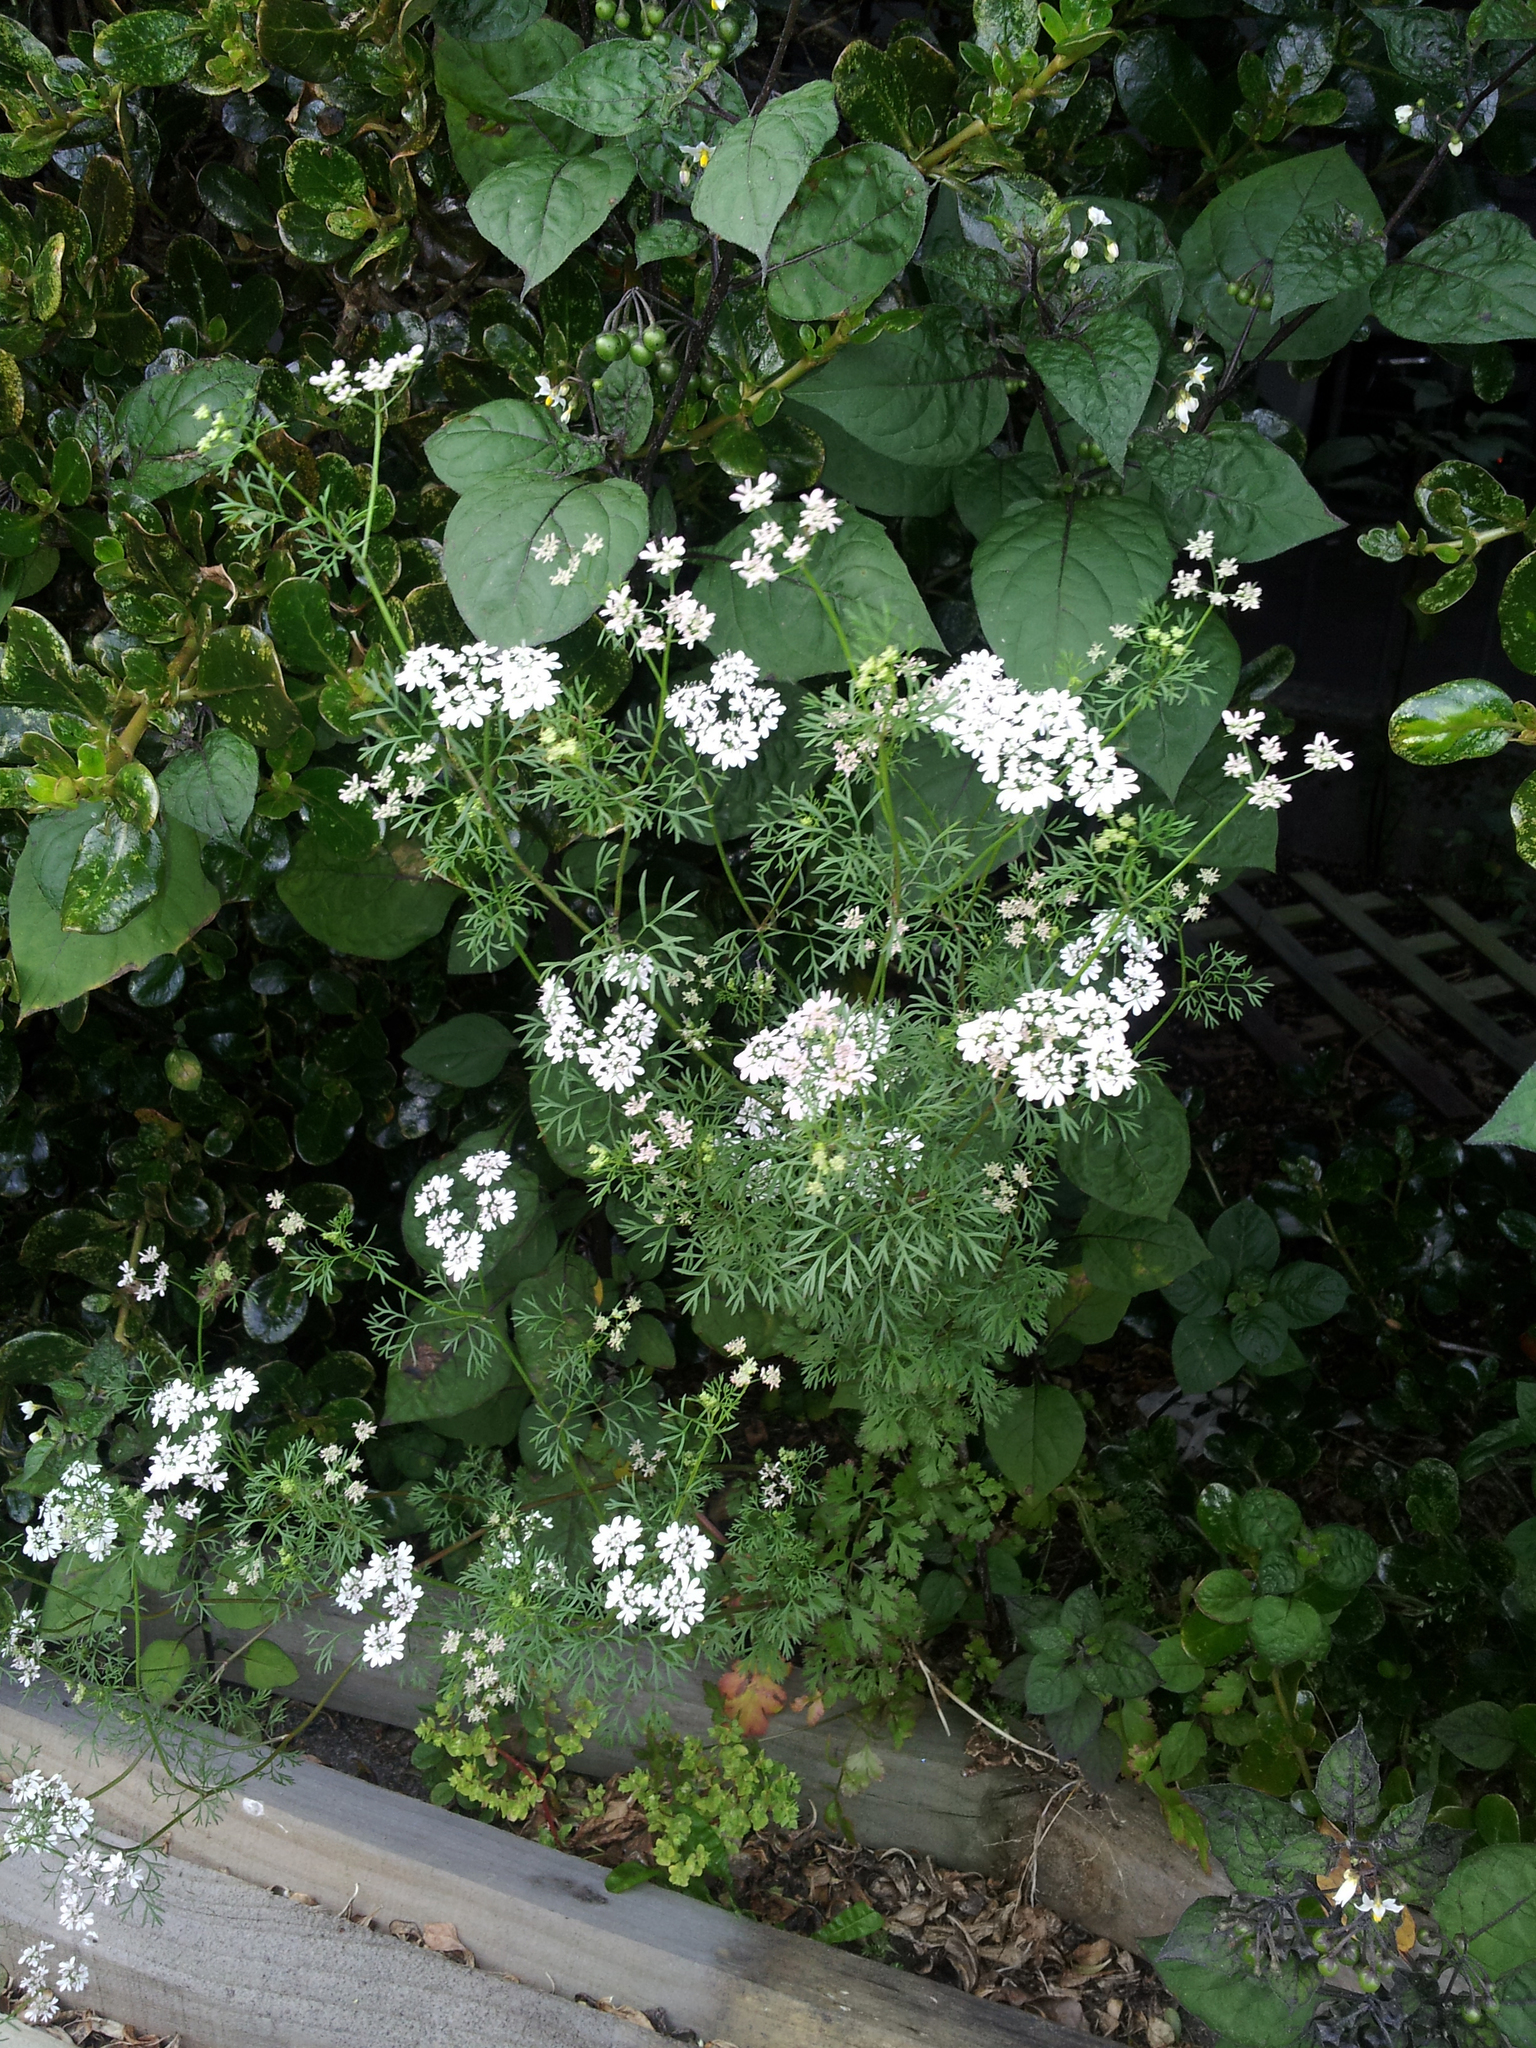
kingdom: Plantae
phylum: Tracheophyta
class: Magnoliopsida
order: Apiales
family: Apiaceae
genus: Coriandrum
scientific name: Coriandrum sativum
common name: Coriander
